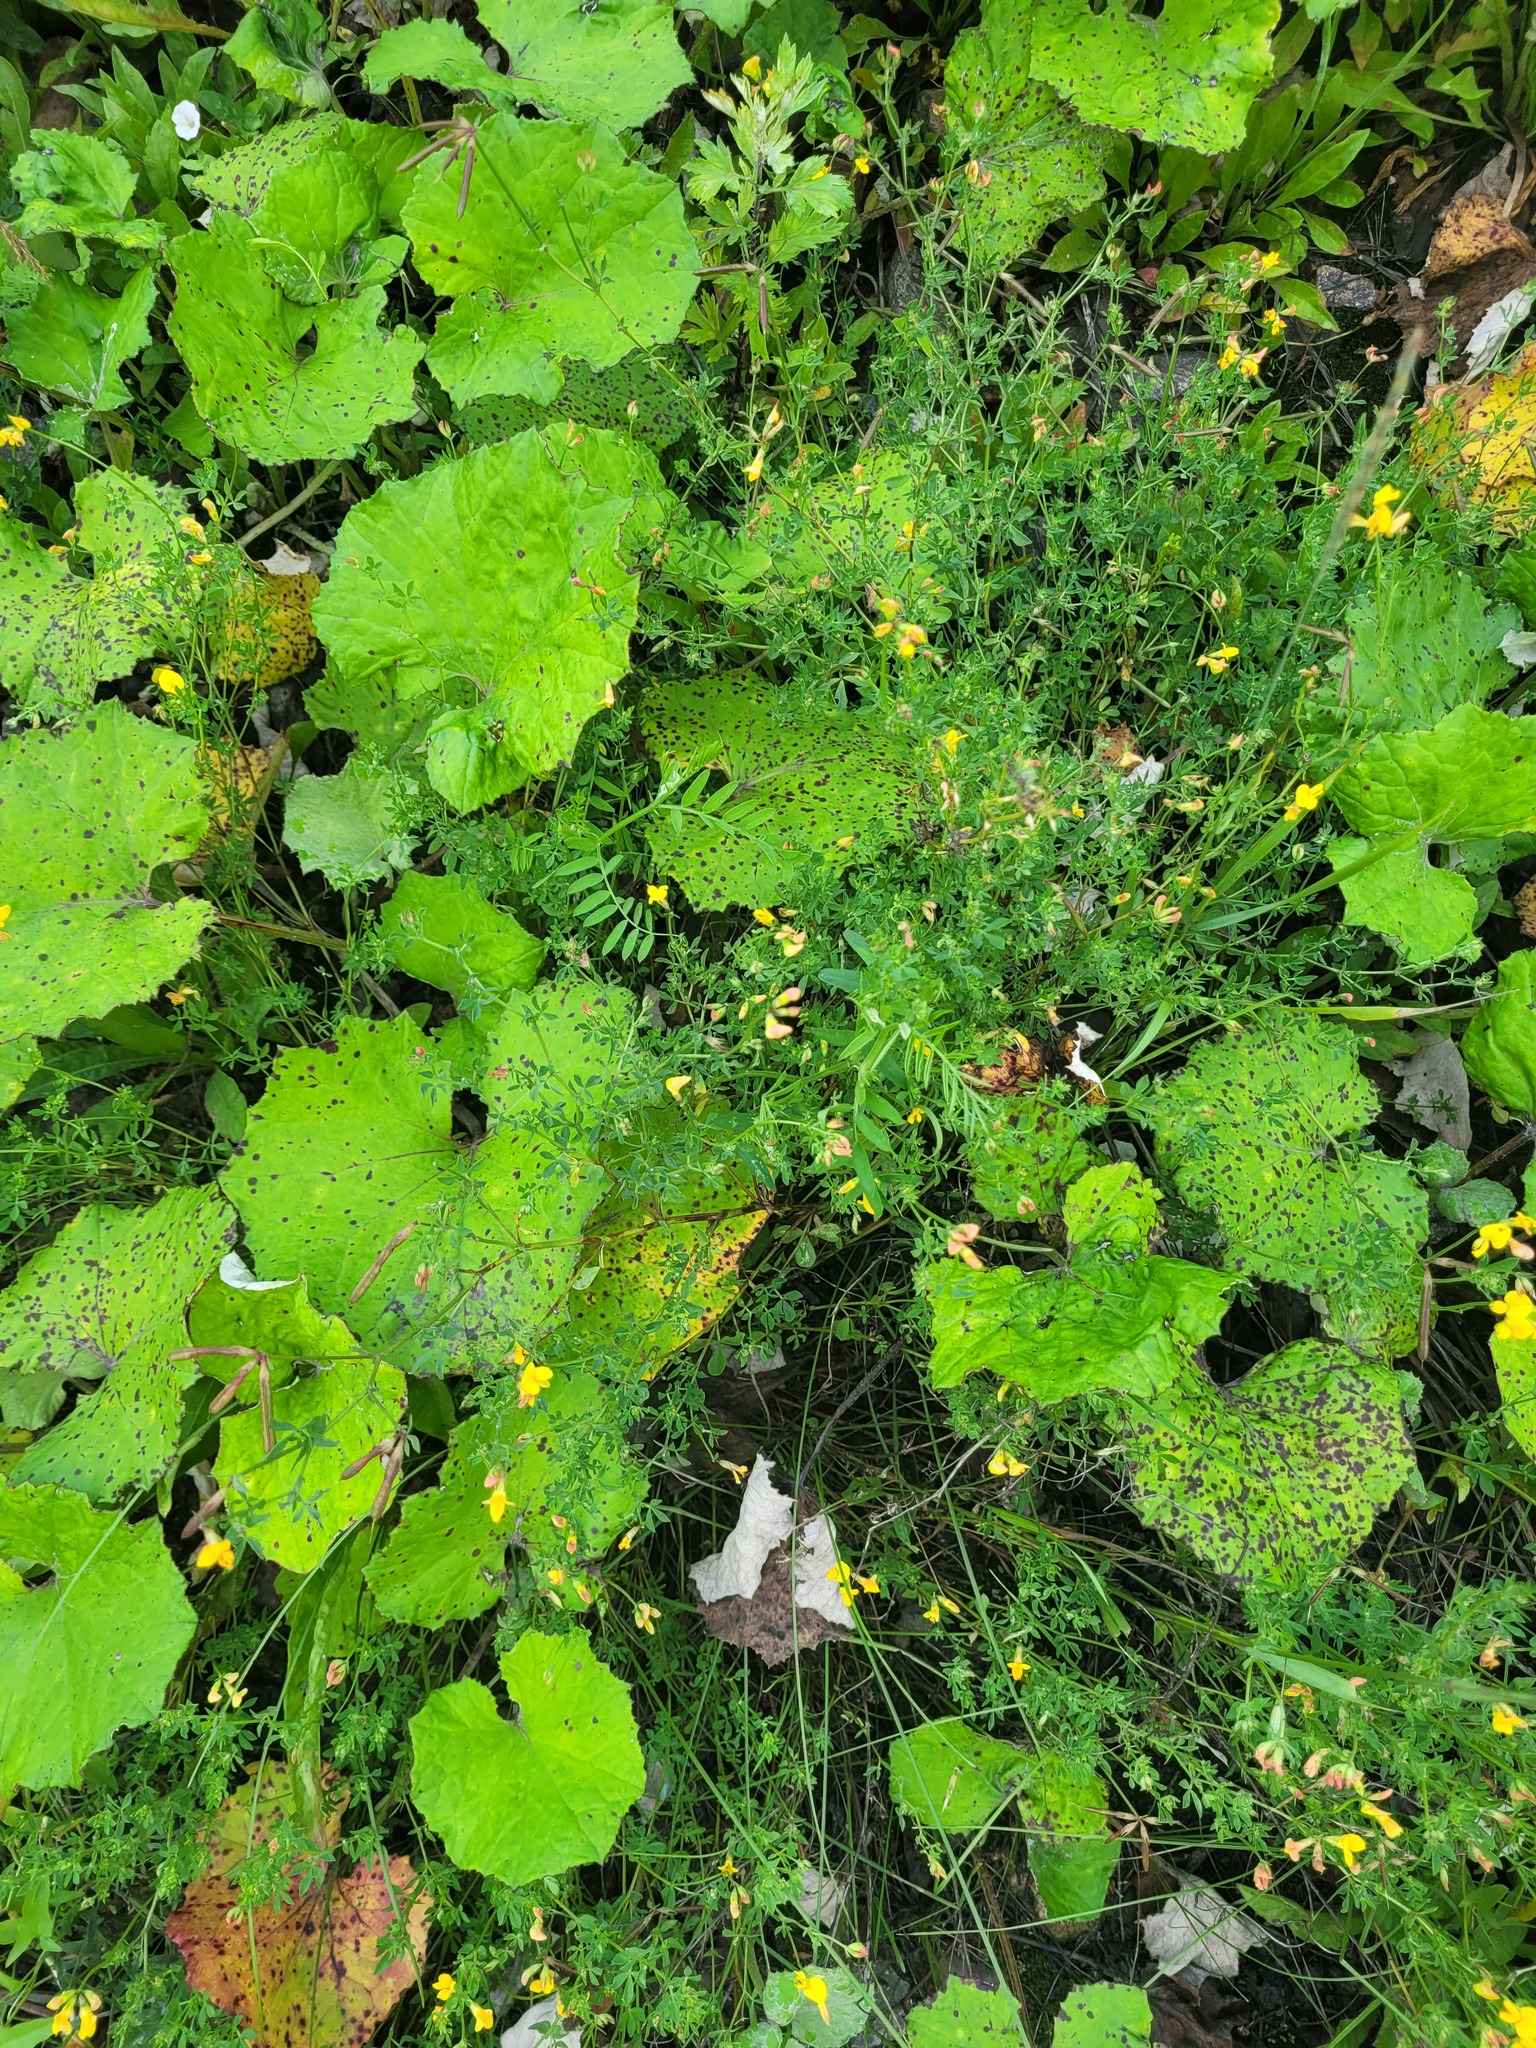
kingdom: Plantae
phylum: Tracheophyta
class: Magnoliopsida
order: Fabales
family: Fabaceae
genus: Lotus
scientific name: Lotus corniculatus
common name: Common bird's-foot-trefoil
